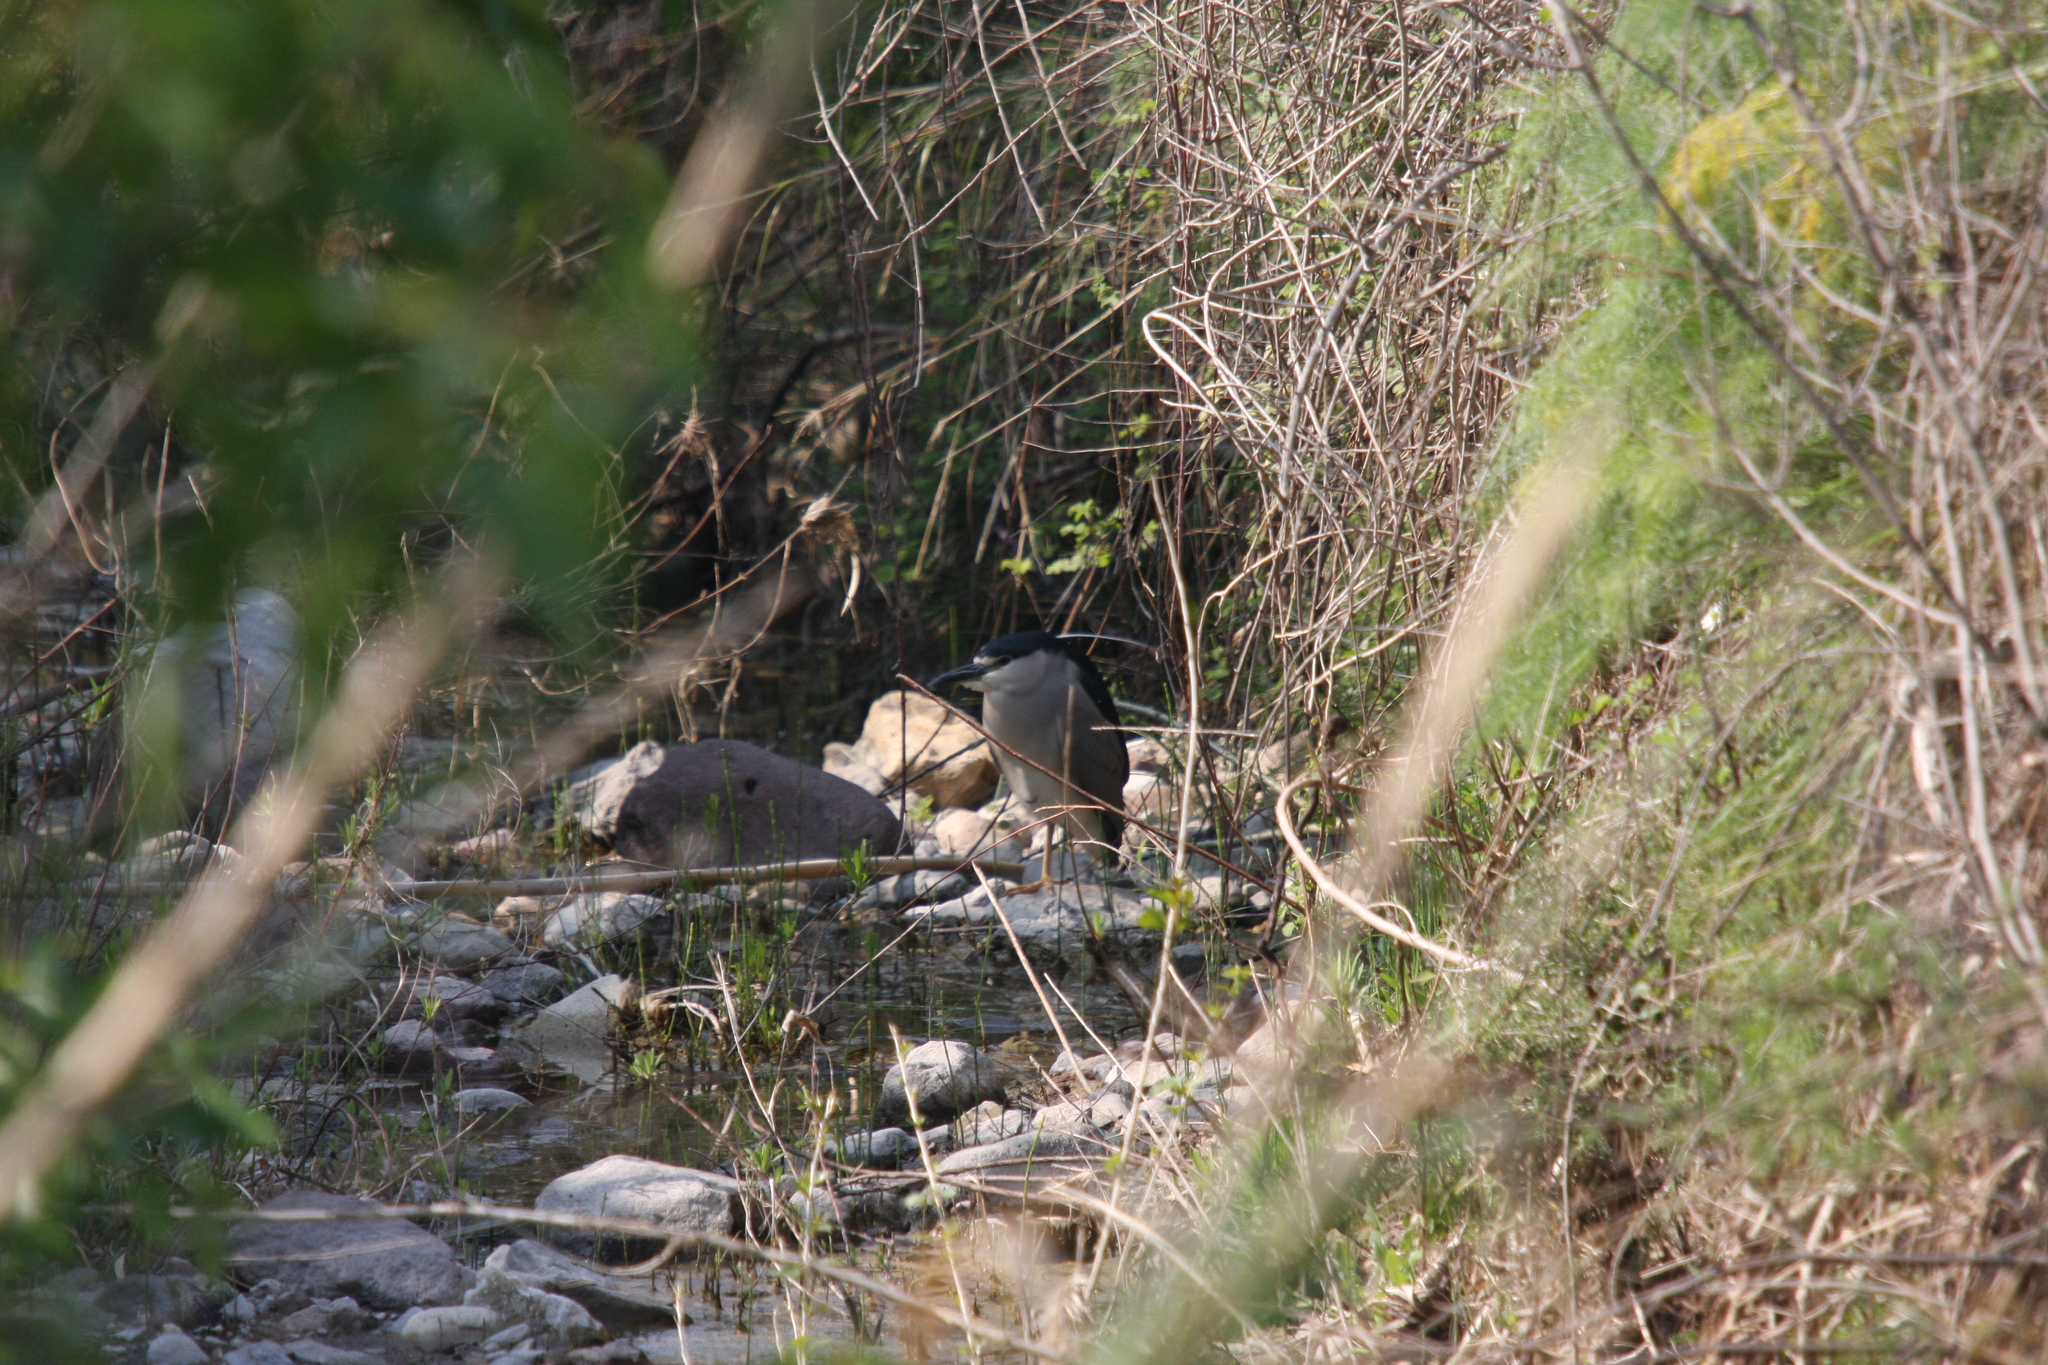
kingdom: Animalia
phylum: Chordata
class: Aves
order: Pelecaniformes
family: Ardeidae
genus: Nycticorax
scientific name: Nycticorax nycticorax
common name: Black-crowned night heron
